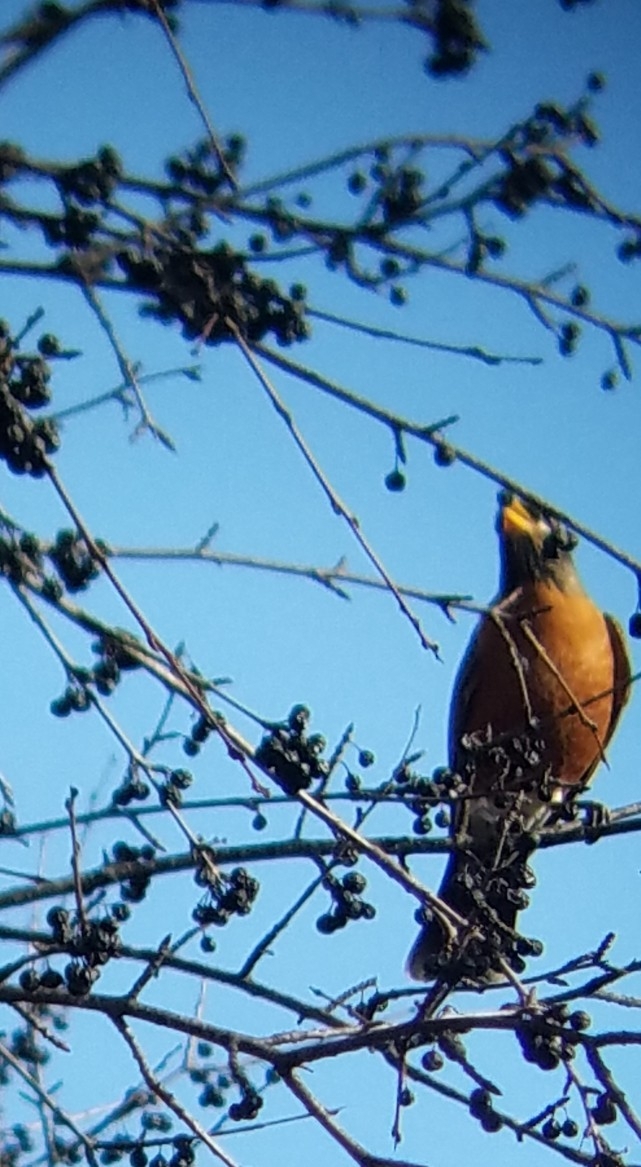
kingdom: Animalia
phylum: Chordata
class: Aves
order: Passeriformes
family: Turdidae
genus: Turdus
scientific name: Turdus migratorius
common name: American robin
